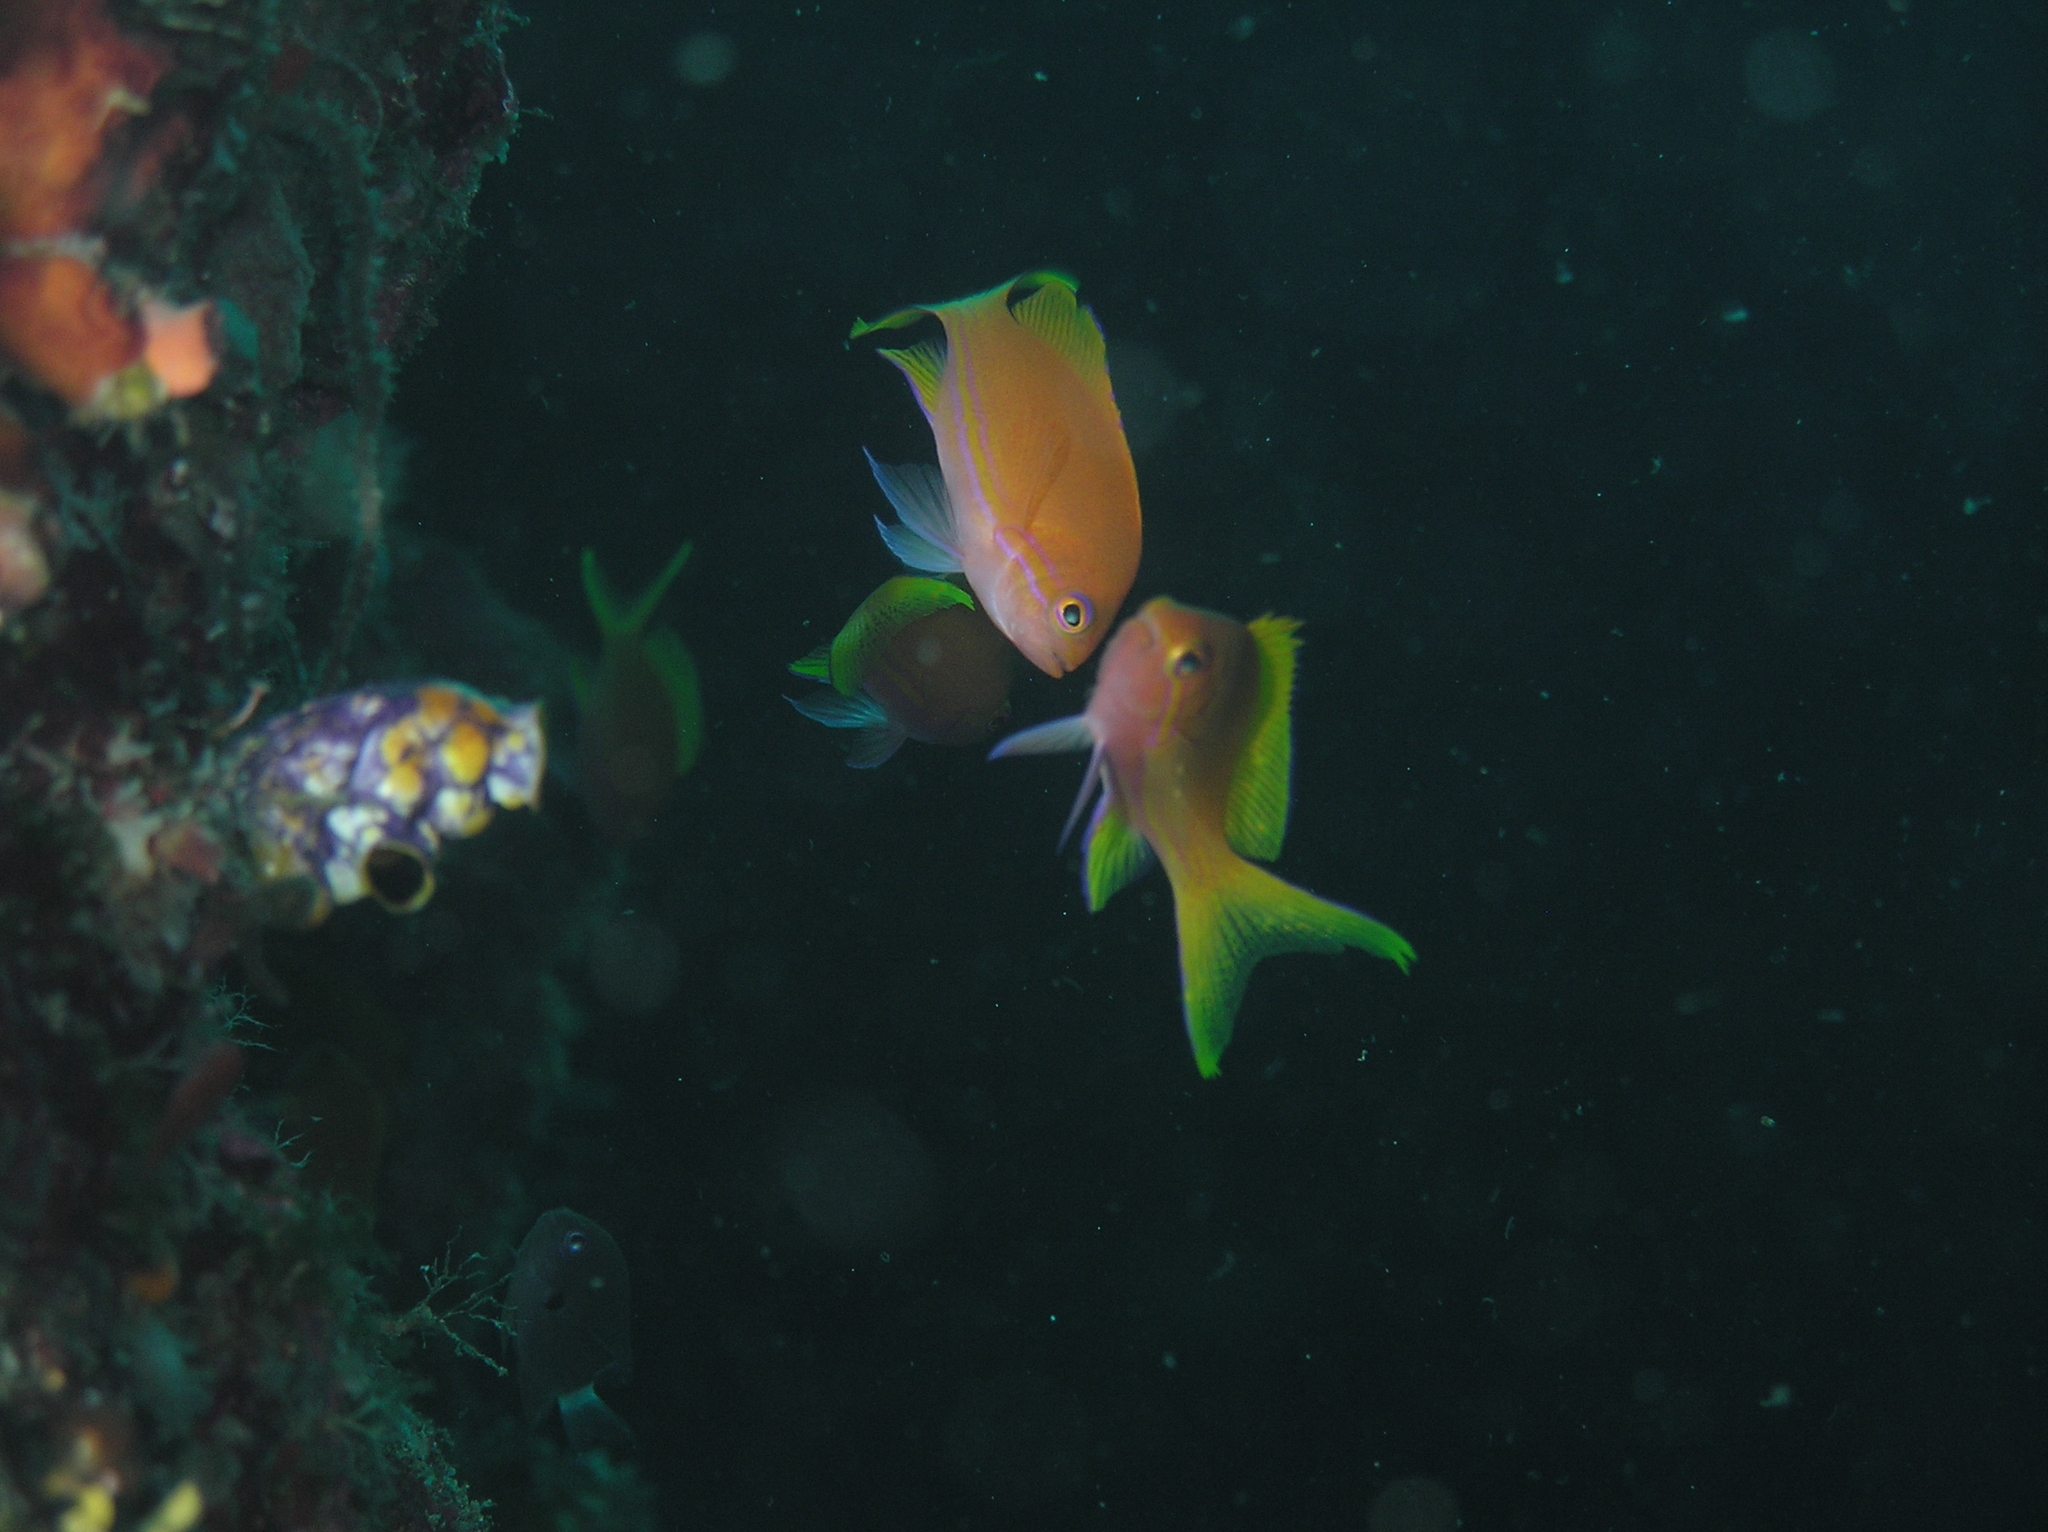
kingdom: Animalia
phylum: Chordata
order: Perciformes
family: Serranidae
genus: Pseudanthias
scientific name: Pseudanthias pleurotaenia
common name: Mirror basslet
